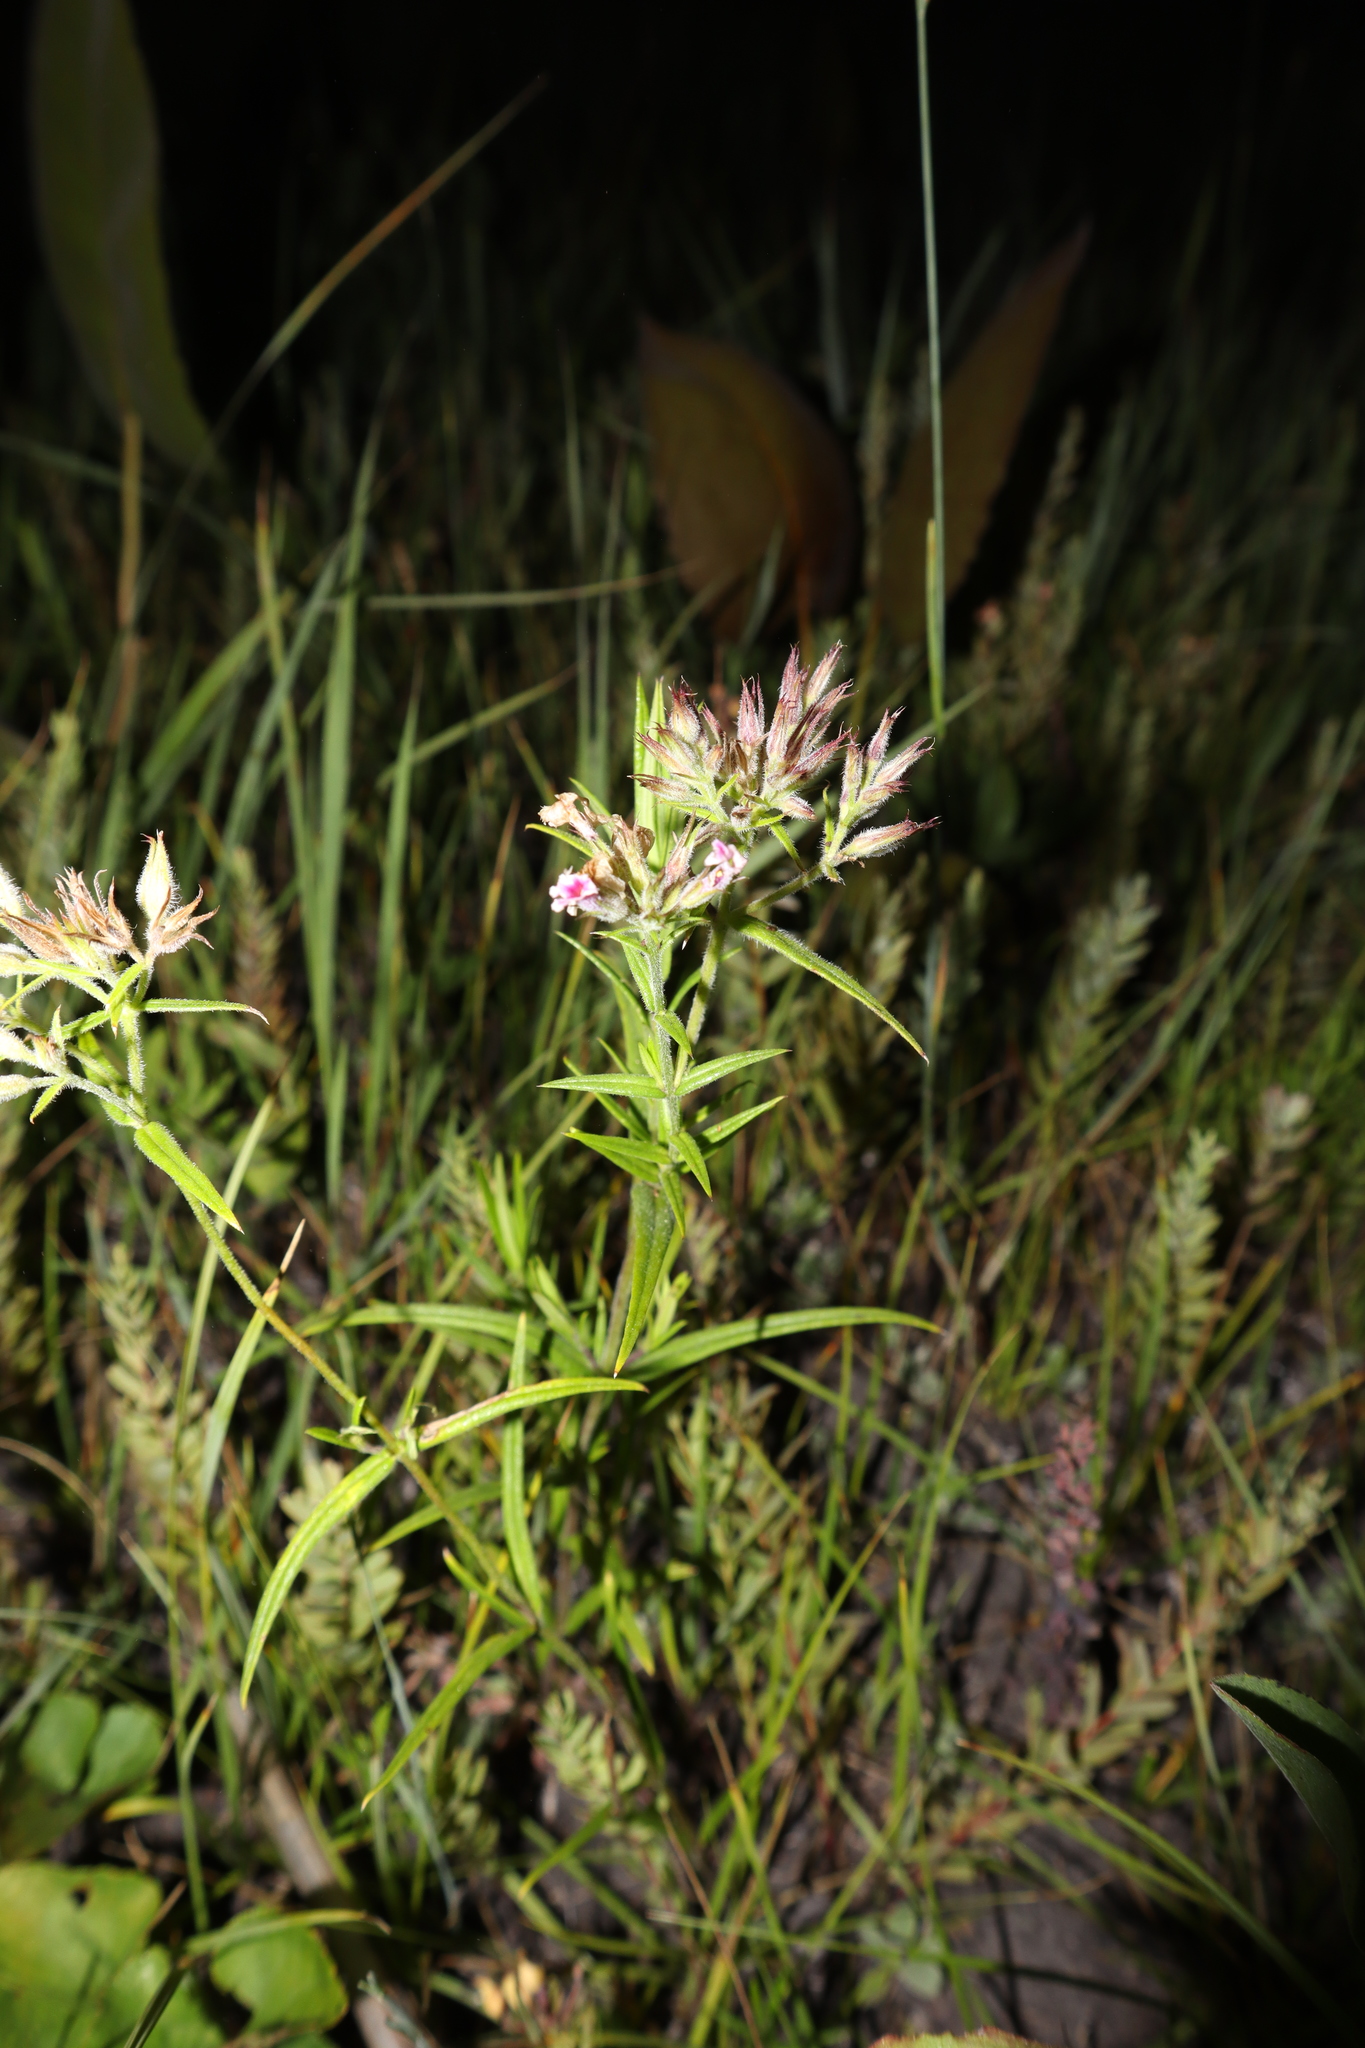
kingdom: Plantae
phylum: Tracheophyta
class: Magnoliopsida
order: Ericales
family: Polemoniaceae
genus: Phlox
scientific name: Phlox pilosa
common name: Prairie phlox
